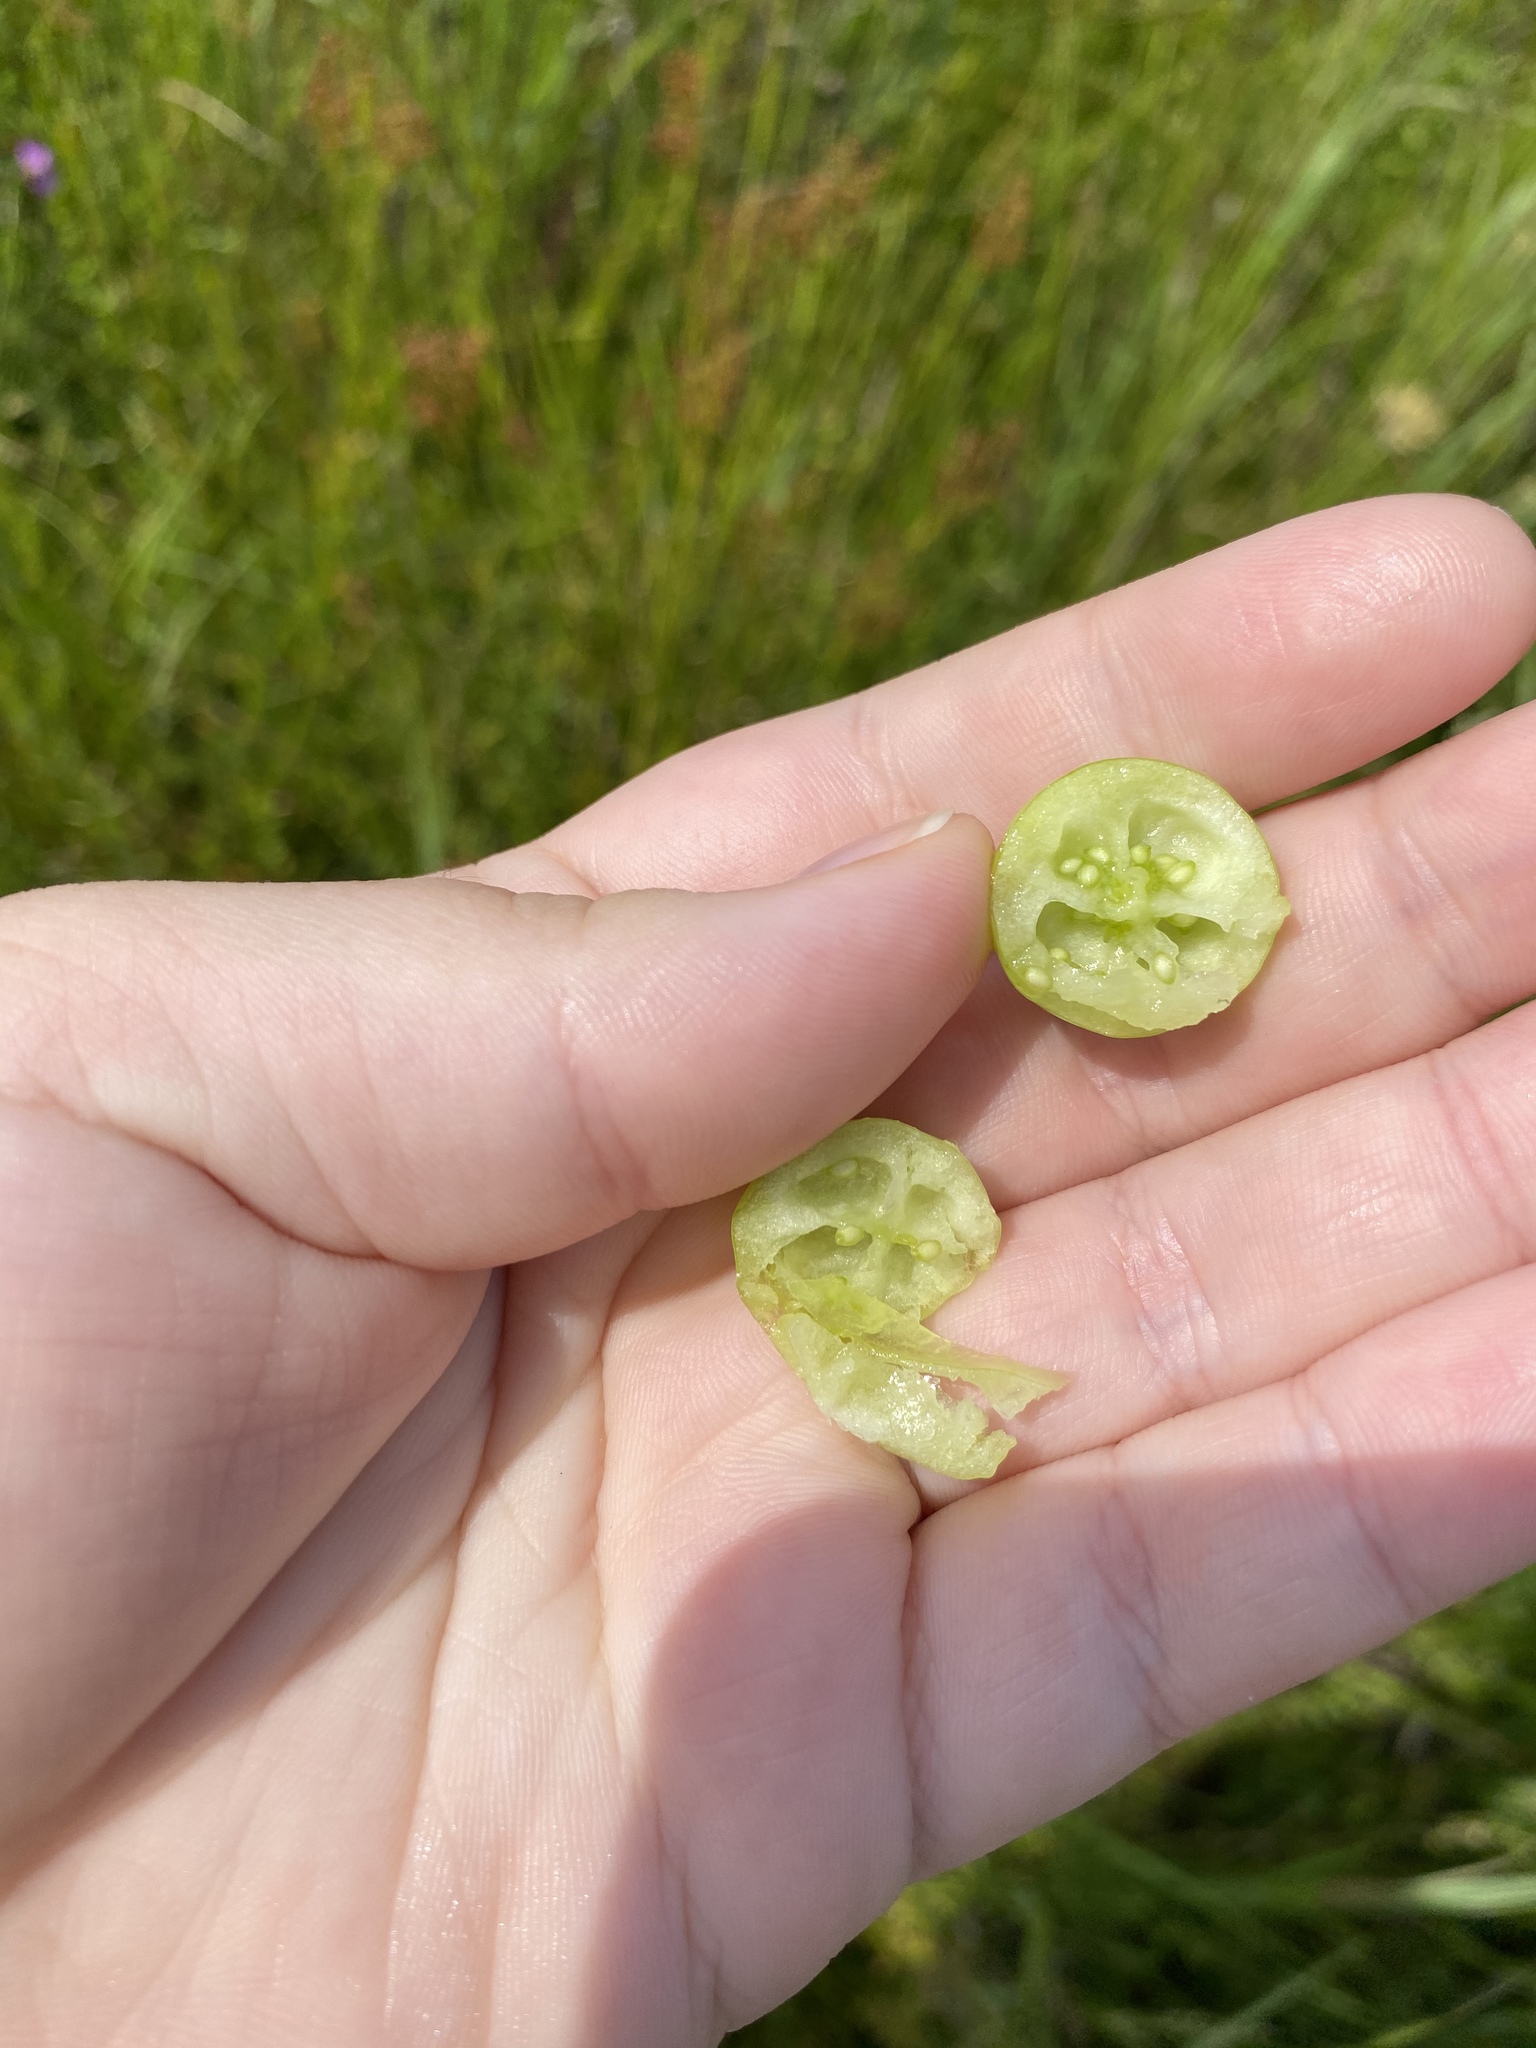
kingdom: Plantae
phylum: Tracheophyta
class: Magnoliopsida
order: Ericales
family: Ericaceae
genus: Vaccinium
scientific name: Vaccinium macrocarpon
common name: American cranberry
